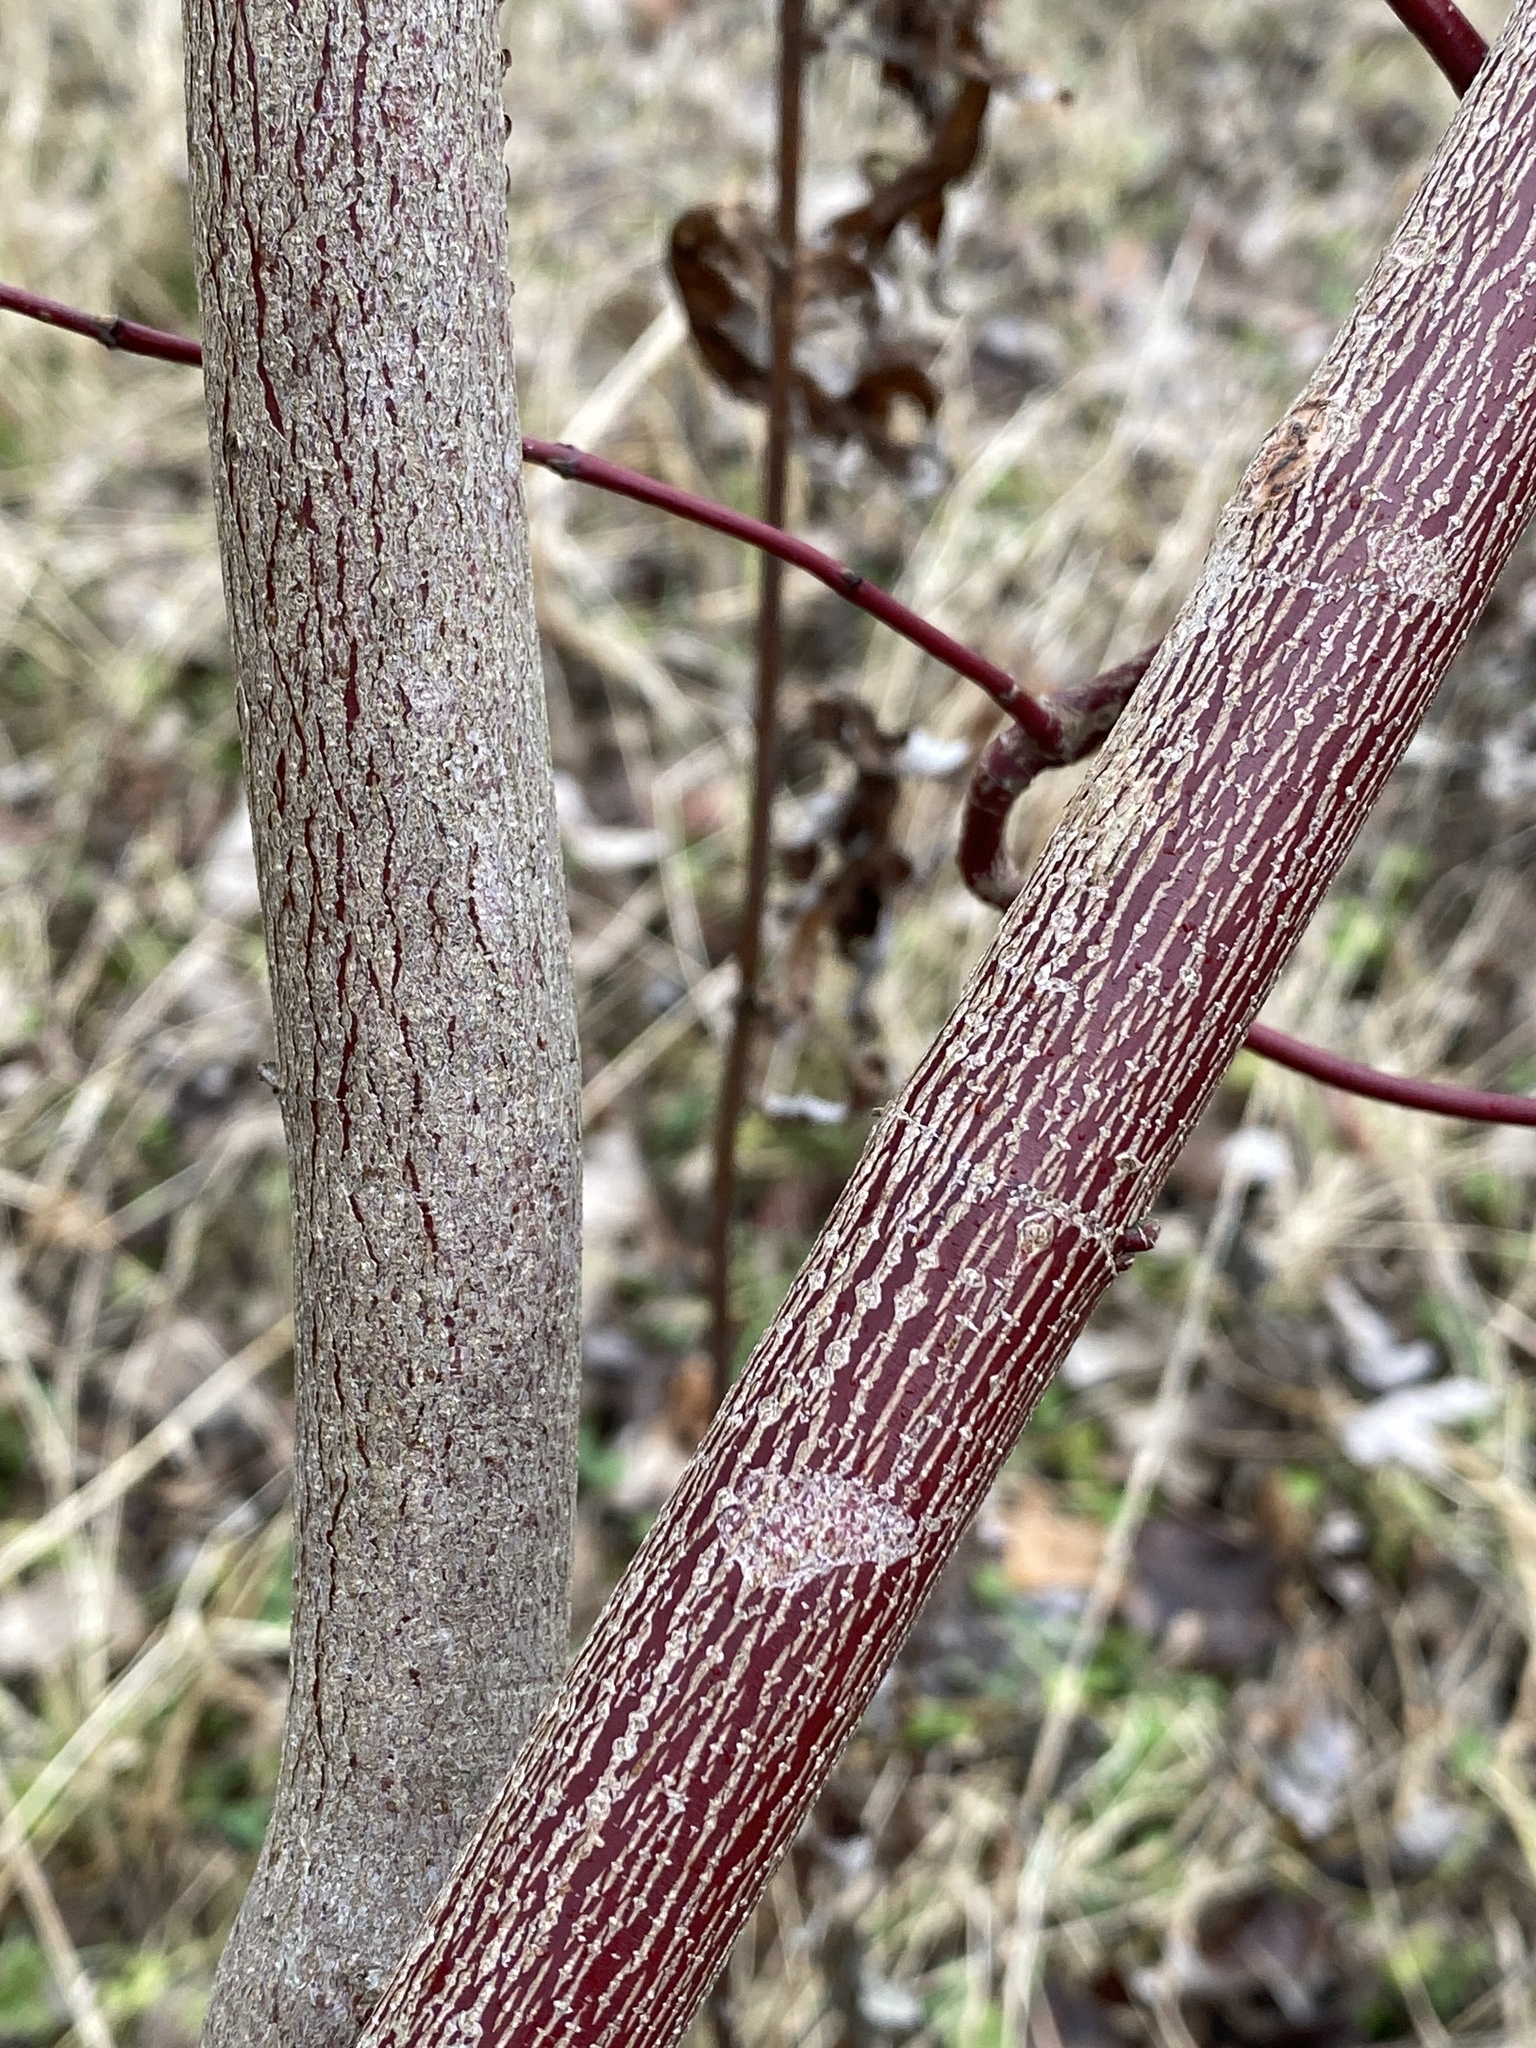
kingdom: Plantae
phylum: Tracheophyta
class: Magnoliopsida
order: Cornales
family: Cornaceae
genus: Cornus
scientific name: Cornus amomum
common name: Silky dogwood
